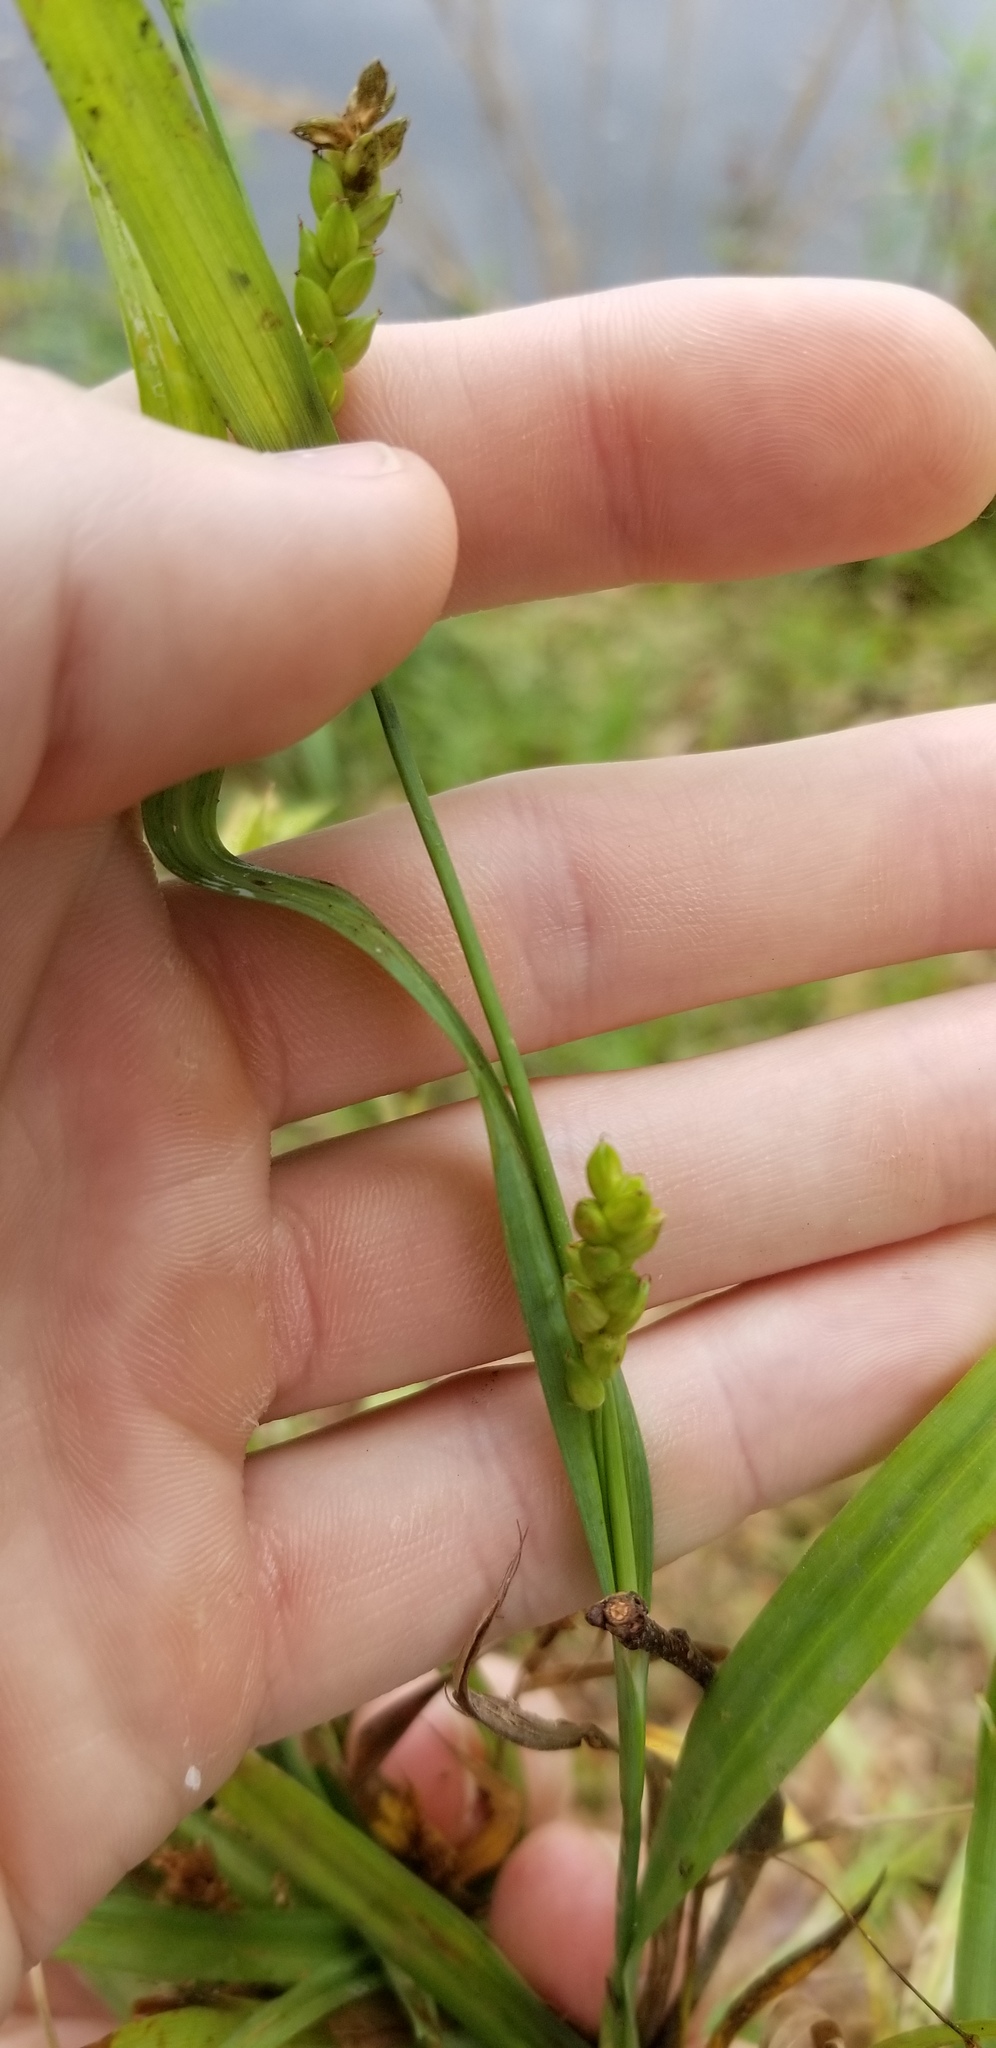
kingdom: Plantae
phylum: Tracheophyta
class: Liliopsida
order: Poales
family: Cyperaceae
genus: Carex
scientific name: Carex pigra
